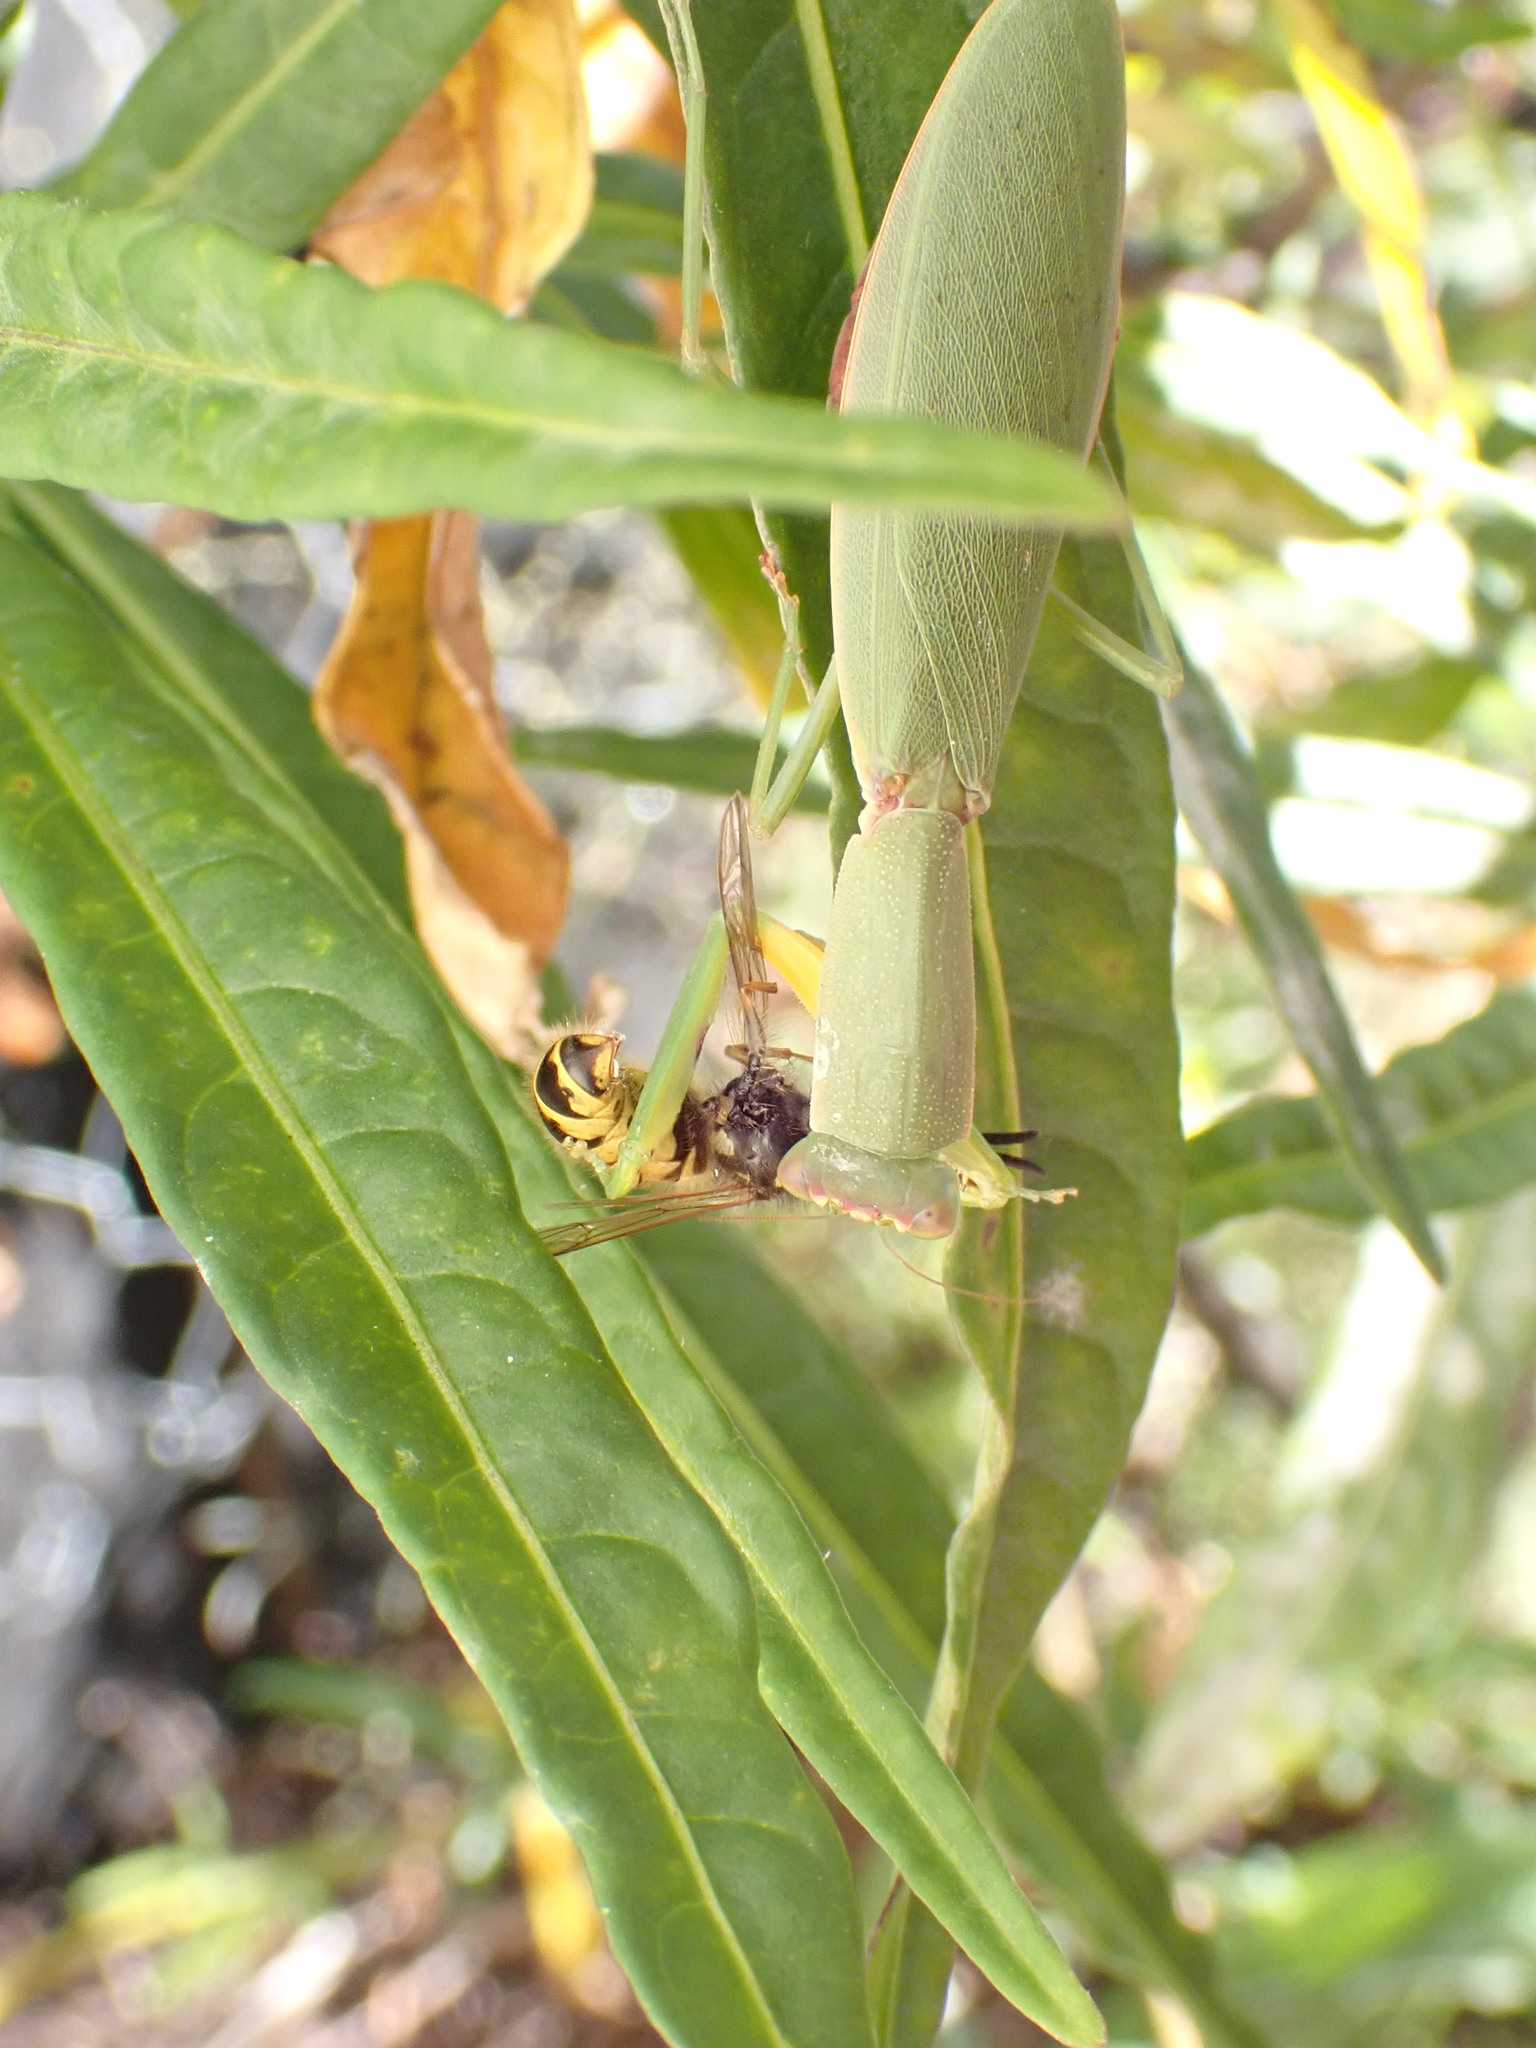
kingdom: Animalia
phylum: Arthropoda
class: Insecta
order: Mantodea
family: Mantidae
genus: Orthodera
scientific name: Orthodera novaezealandiae
